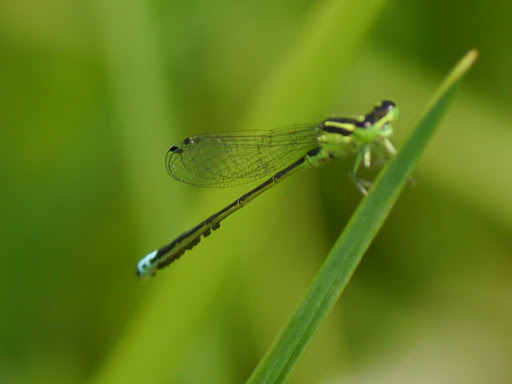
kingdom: Animalia
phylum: Arthropoda
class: Insecta
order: Odonata
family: Coenagrionidae
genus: Ischnura
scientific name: Ischnura verticalis
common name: Eastern forktail
